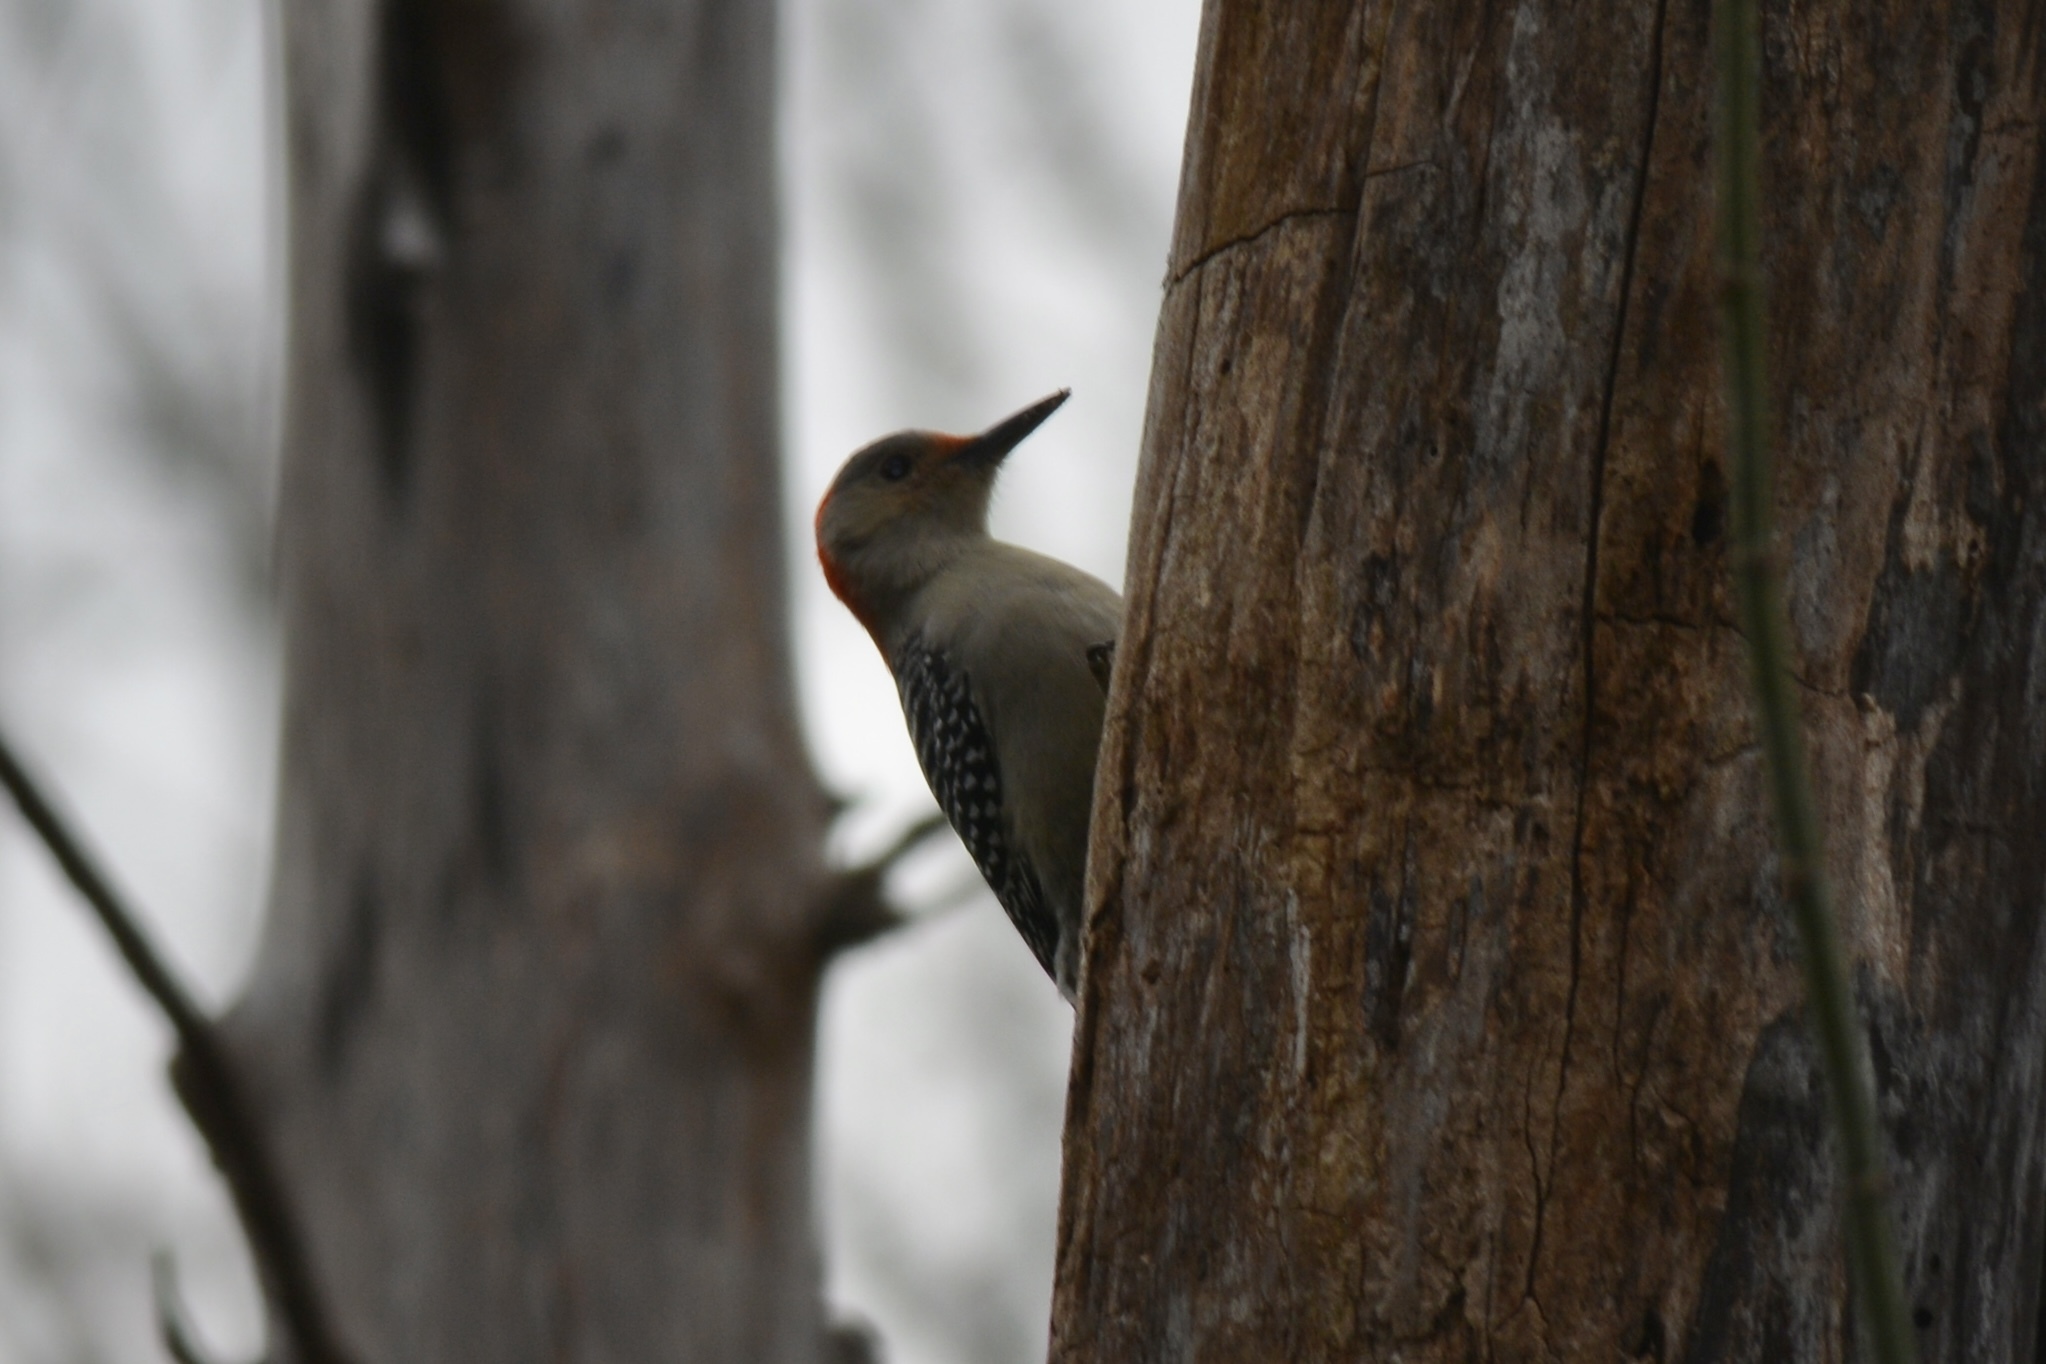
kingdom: Animalia
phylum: Chordata
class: Aves
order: Piciformes
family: Picidae
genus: Melanerpes
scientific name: Melanerpes carolinus
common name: Red-bellied woodpecker
